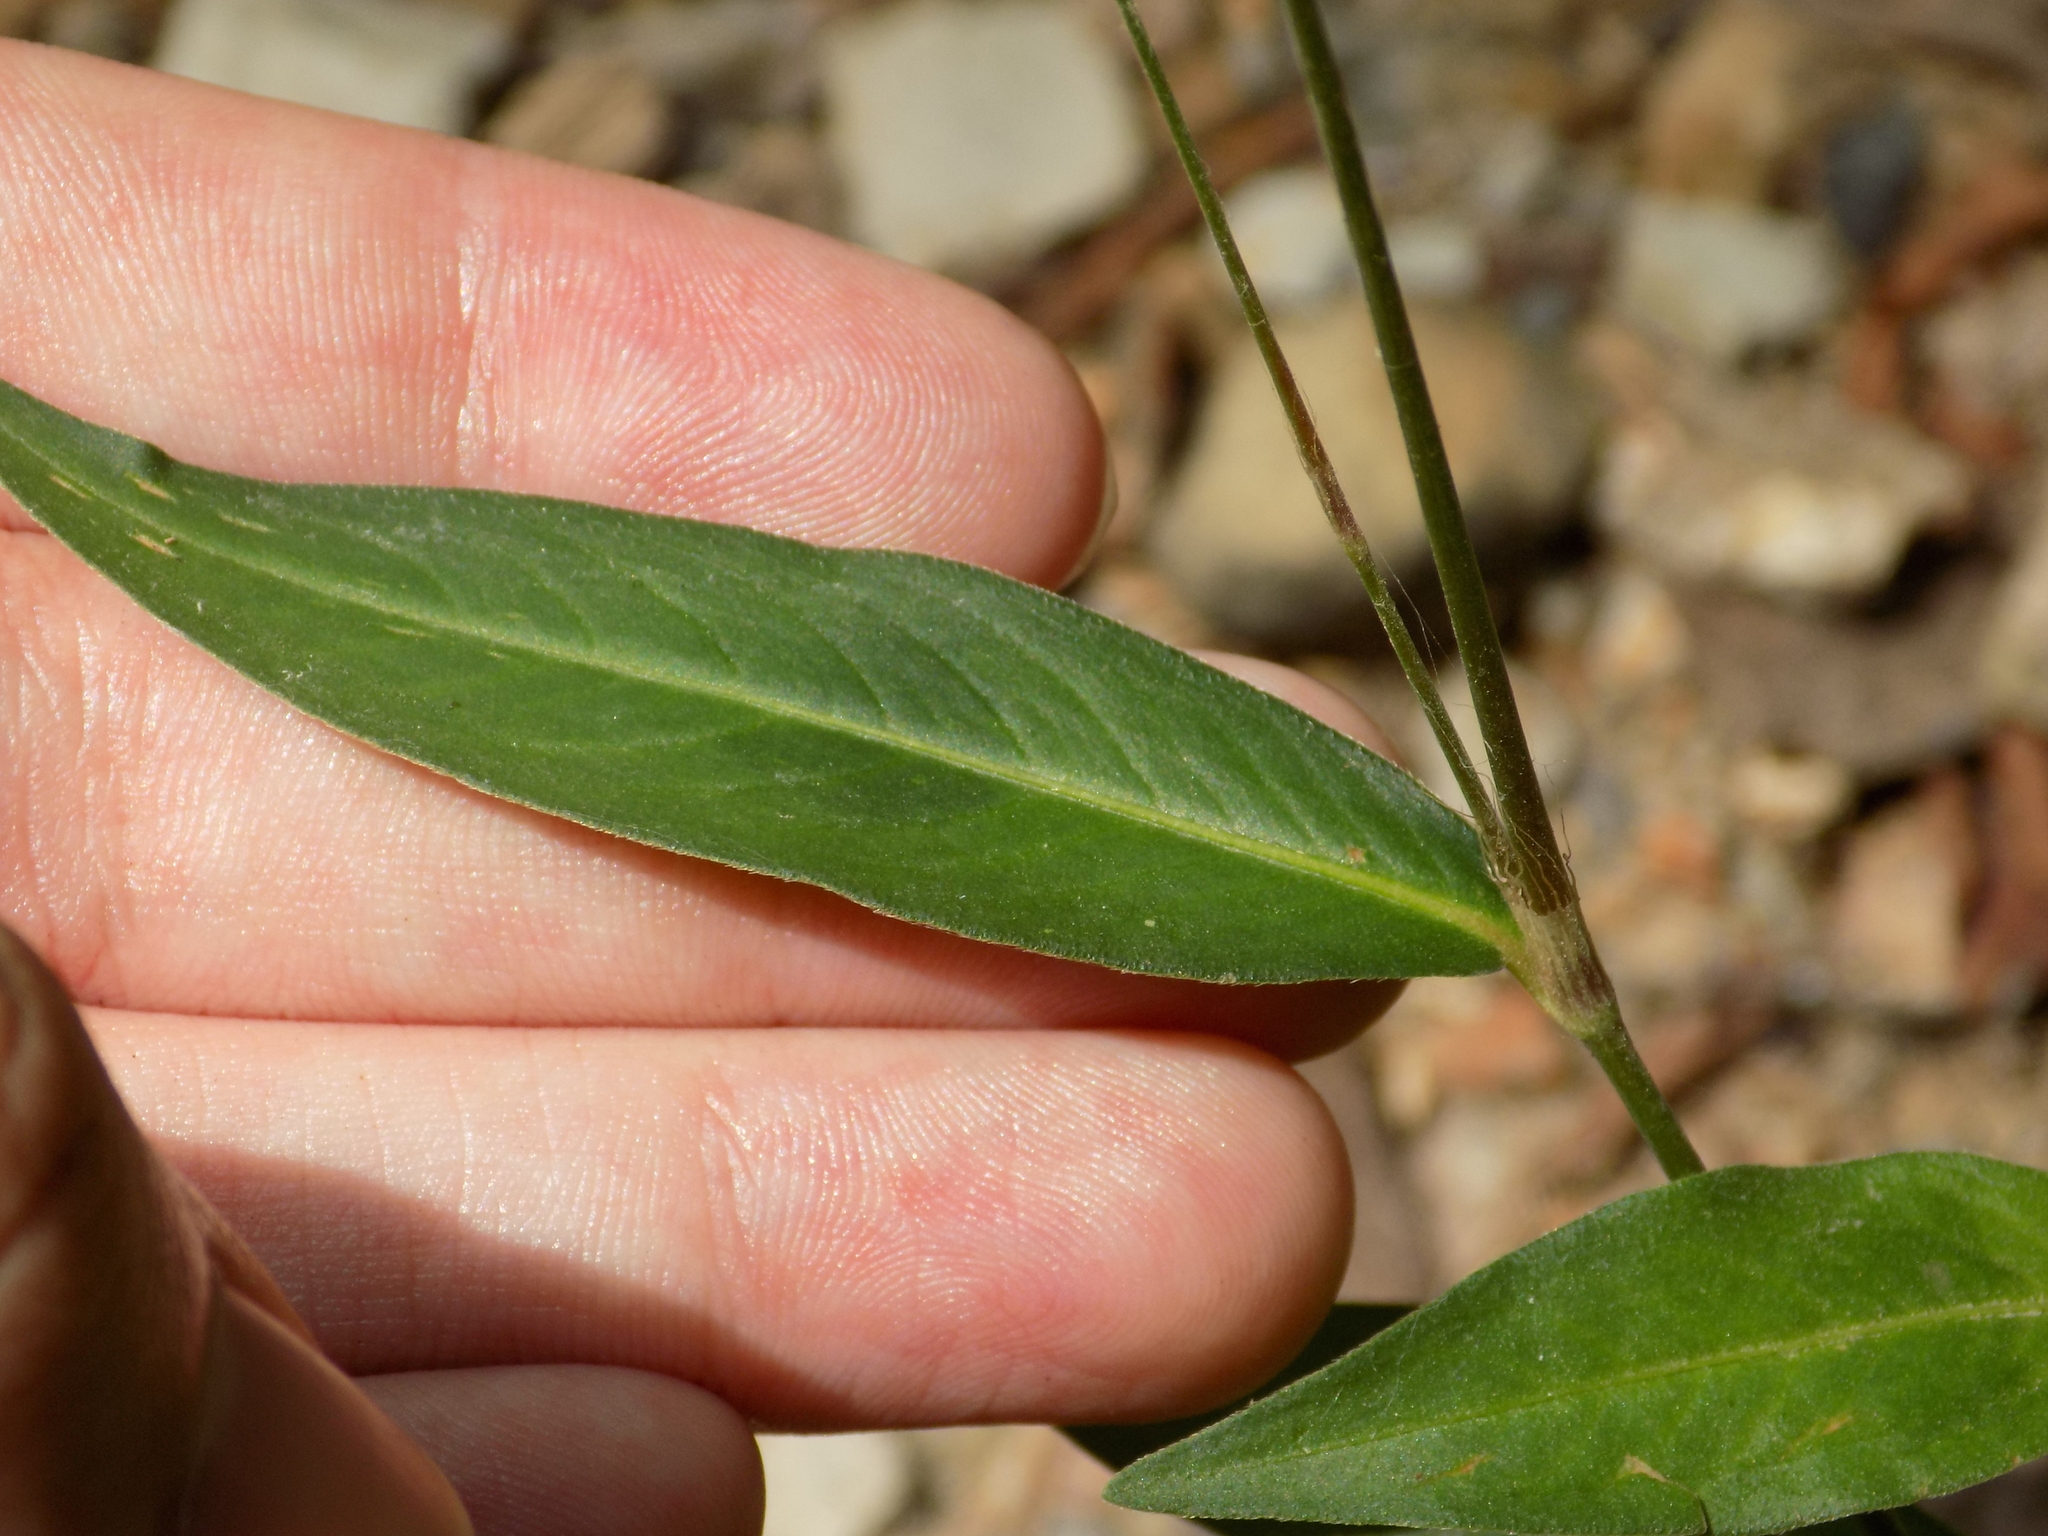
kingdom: Plantae
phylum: Tracheophyta
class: Magnoliopsida
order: Caryophyllales
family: Polygonaceae
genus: Persicaria
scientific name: Persicaria hydropiper
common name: Water-pepper
